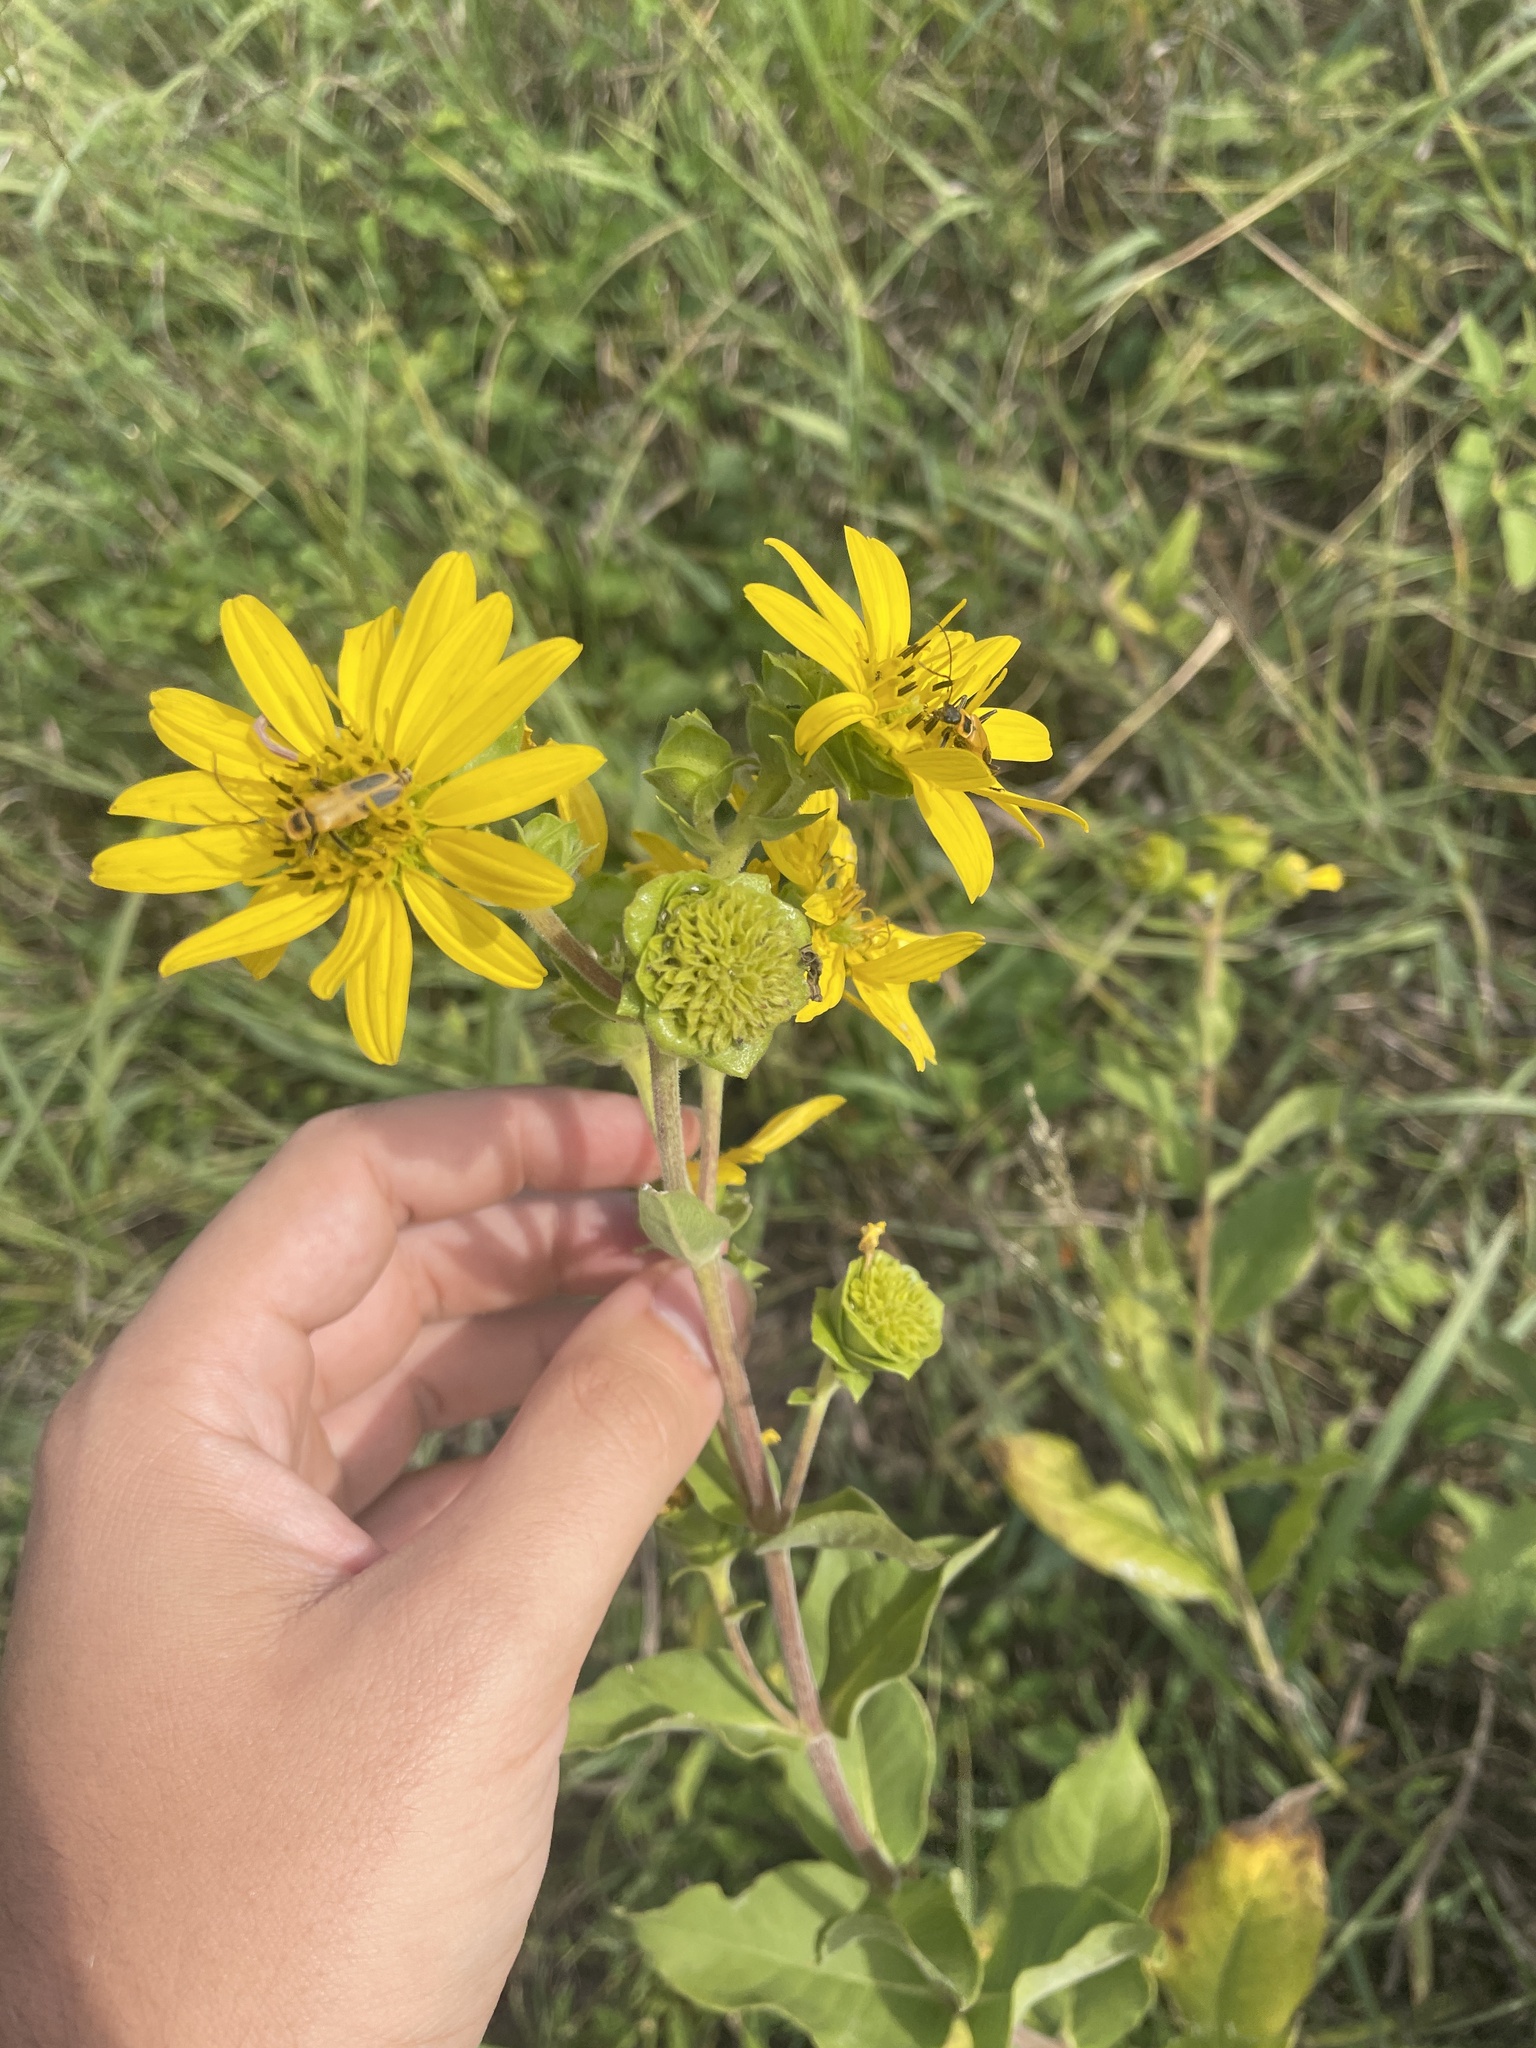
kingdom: Plantae
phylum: Tracheophyta
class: Magnoliopsida
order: Asterales
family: Asteraceae
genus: Silphium
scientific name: Silphium integrifolium
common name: Whole-leaf rosinweed
